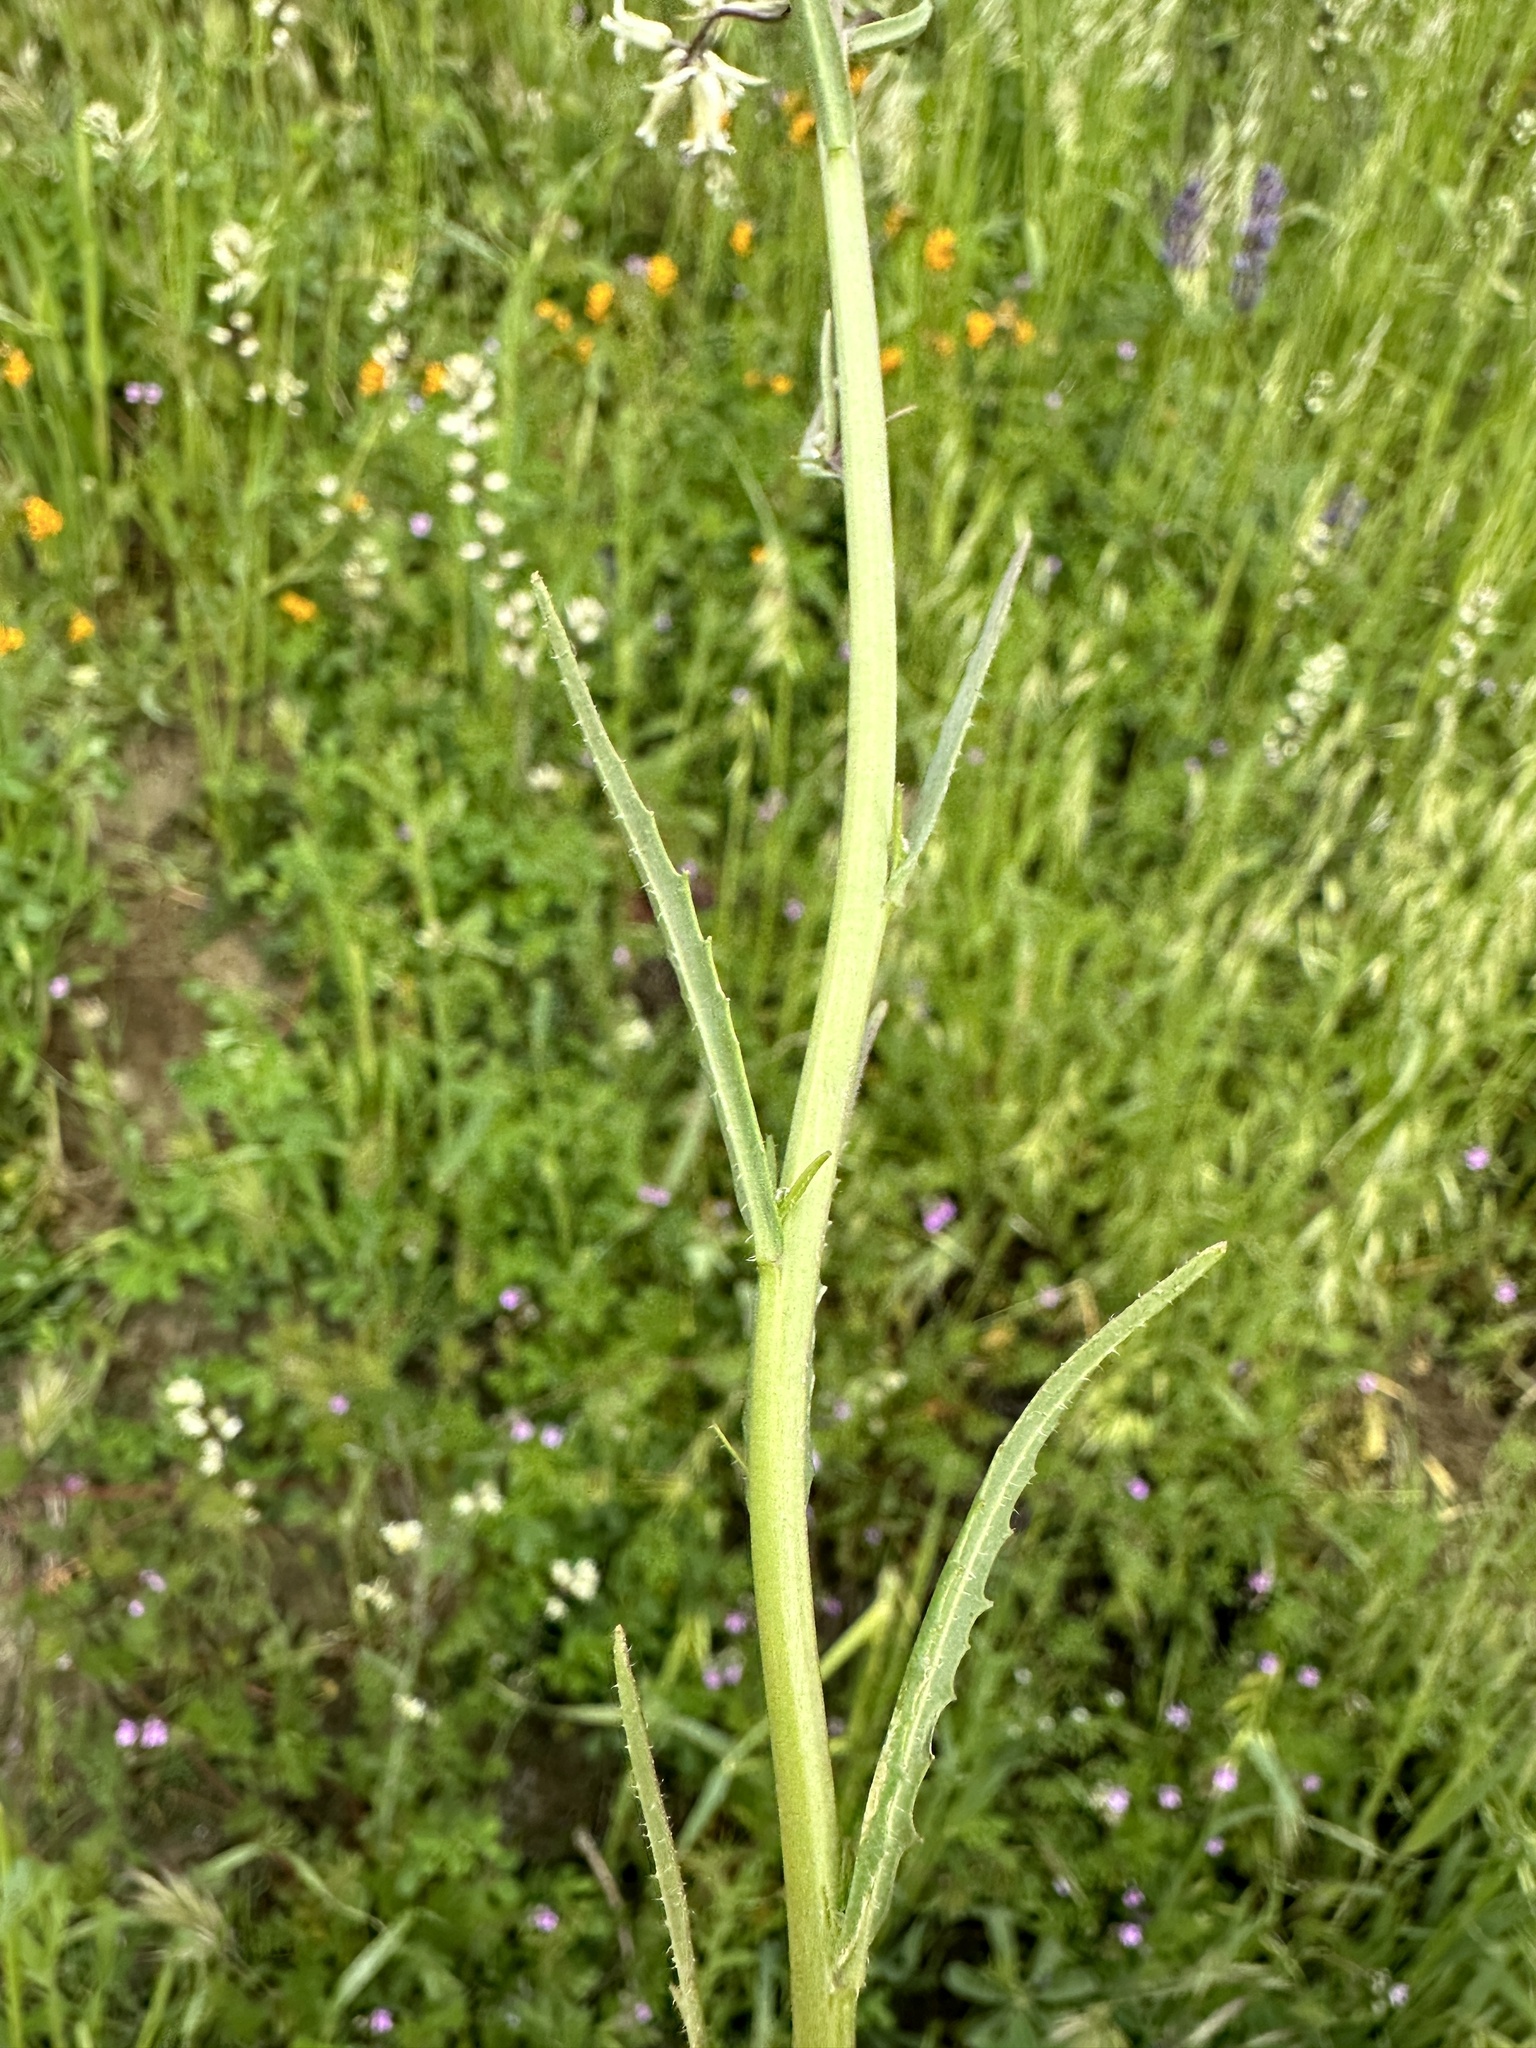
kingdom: Plantae
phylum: Tracheophyta
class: Magnoliopsida
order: Brassicales
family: Brassicaceae
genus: Streptanthus
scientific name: Streptanthus flavescens
